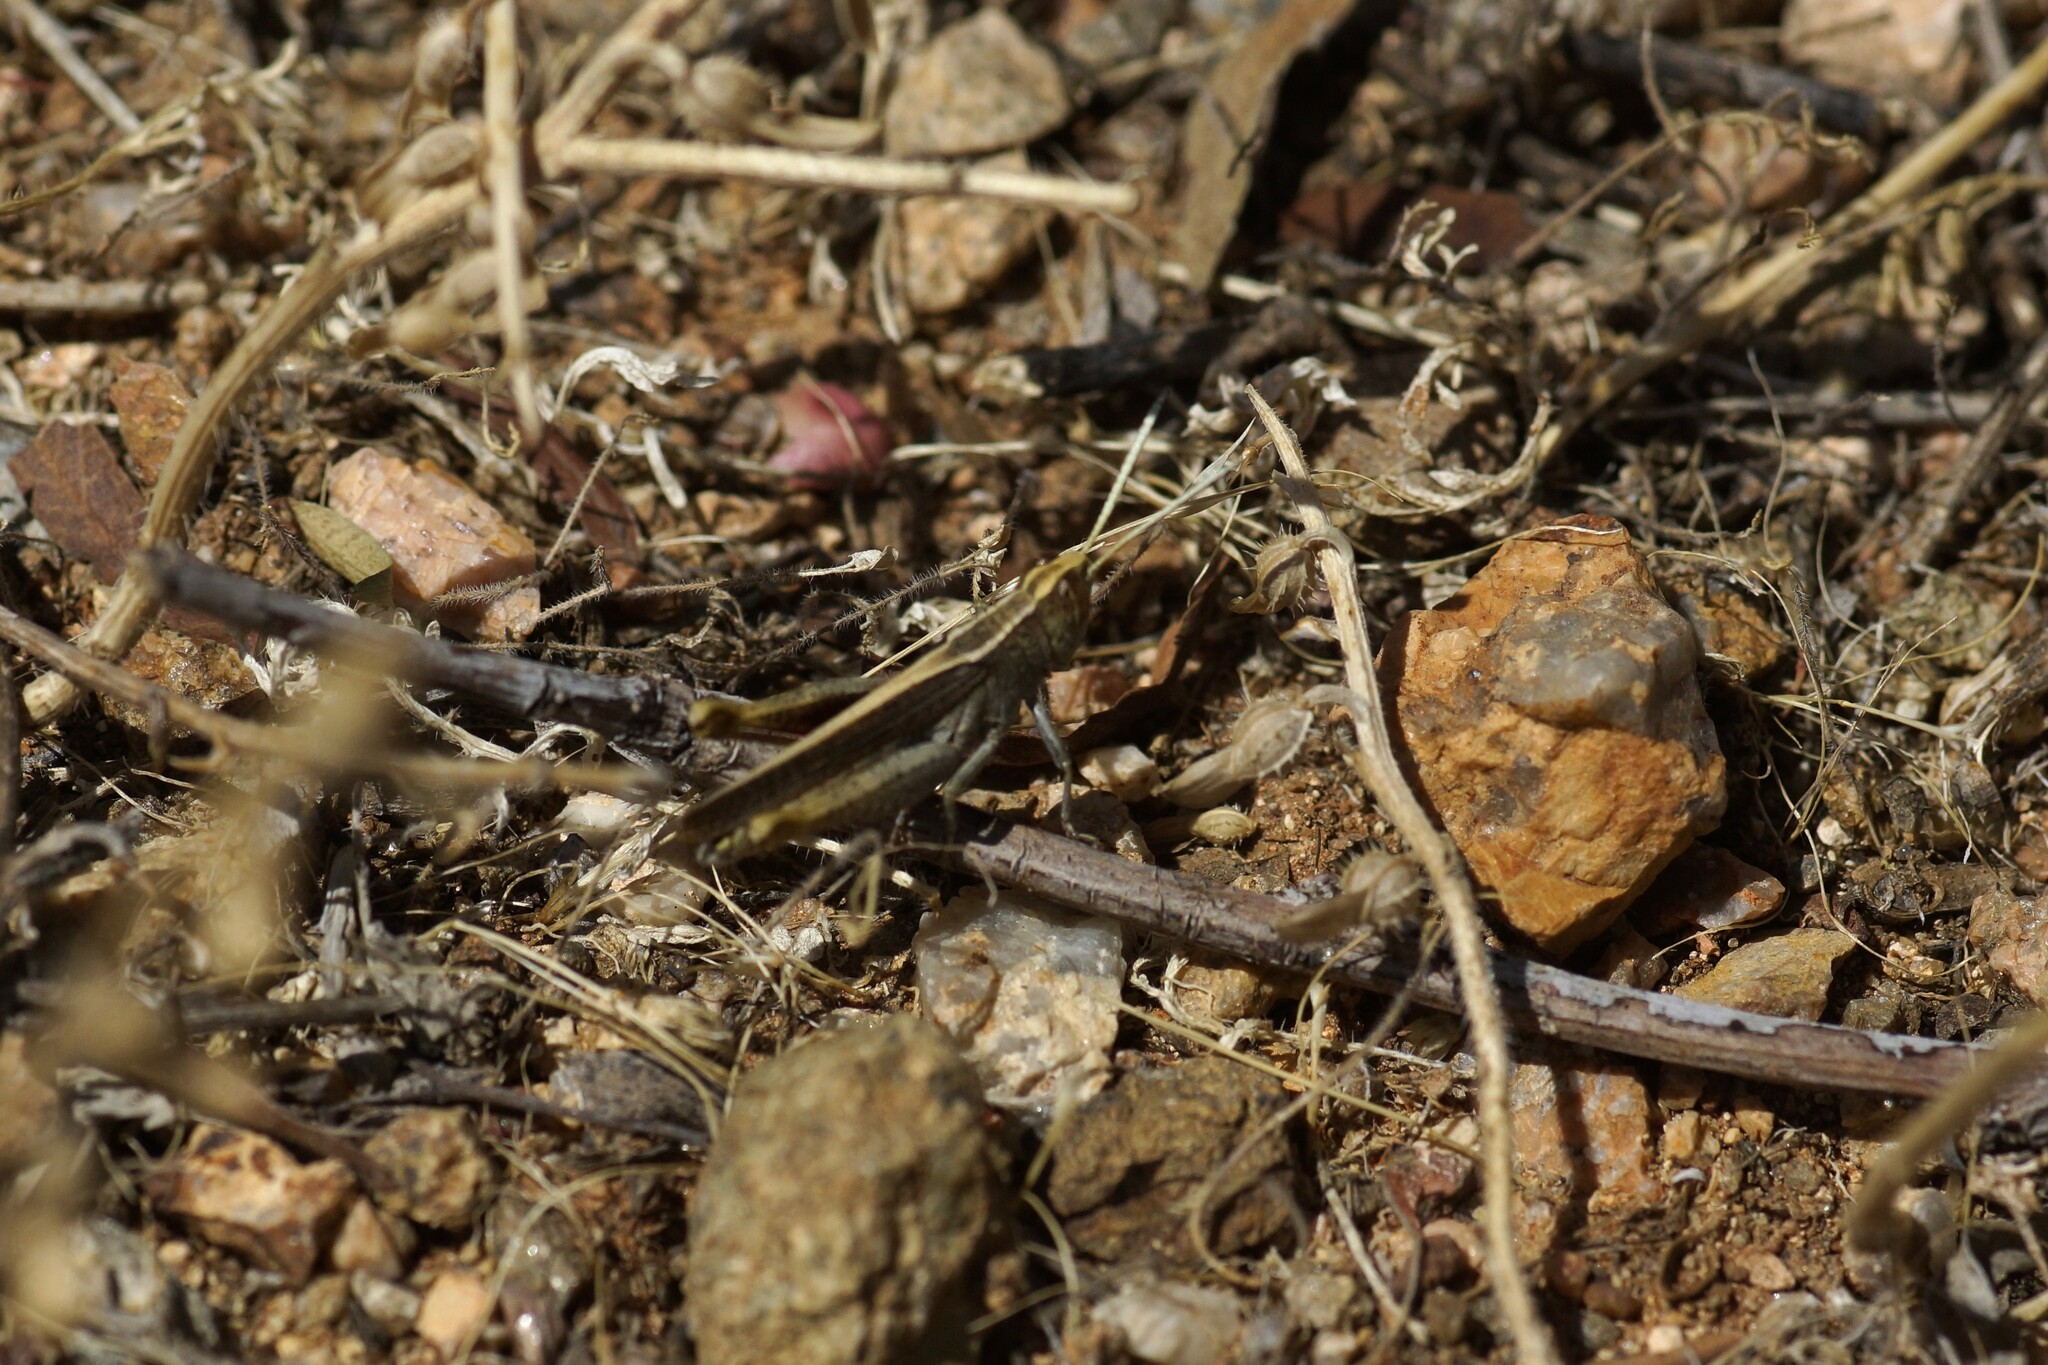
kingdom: Animalia
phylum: Arthropoda
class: Insecta
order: Orthoptera
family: Acrididae
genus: Apotropis
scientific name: Apotropis vittata
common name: Common striped grasshopper
